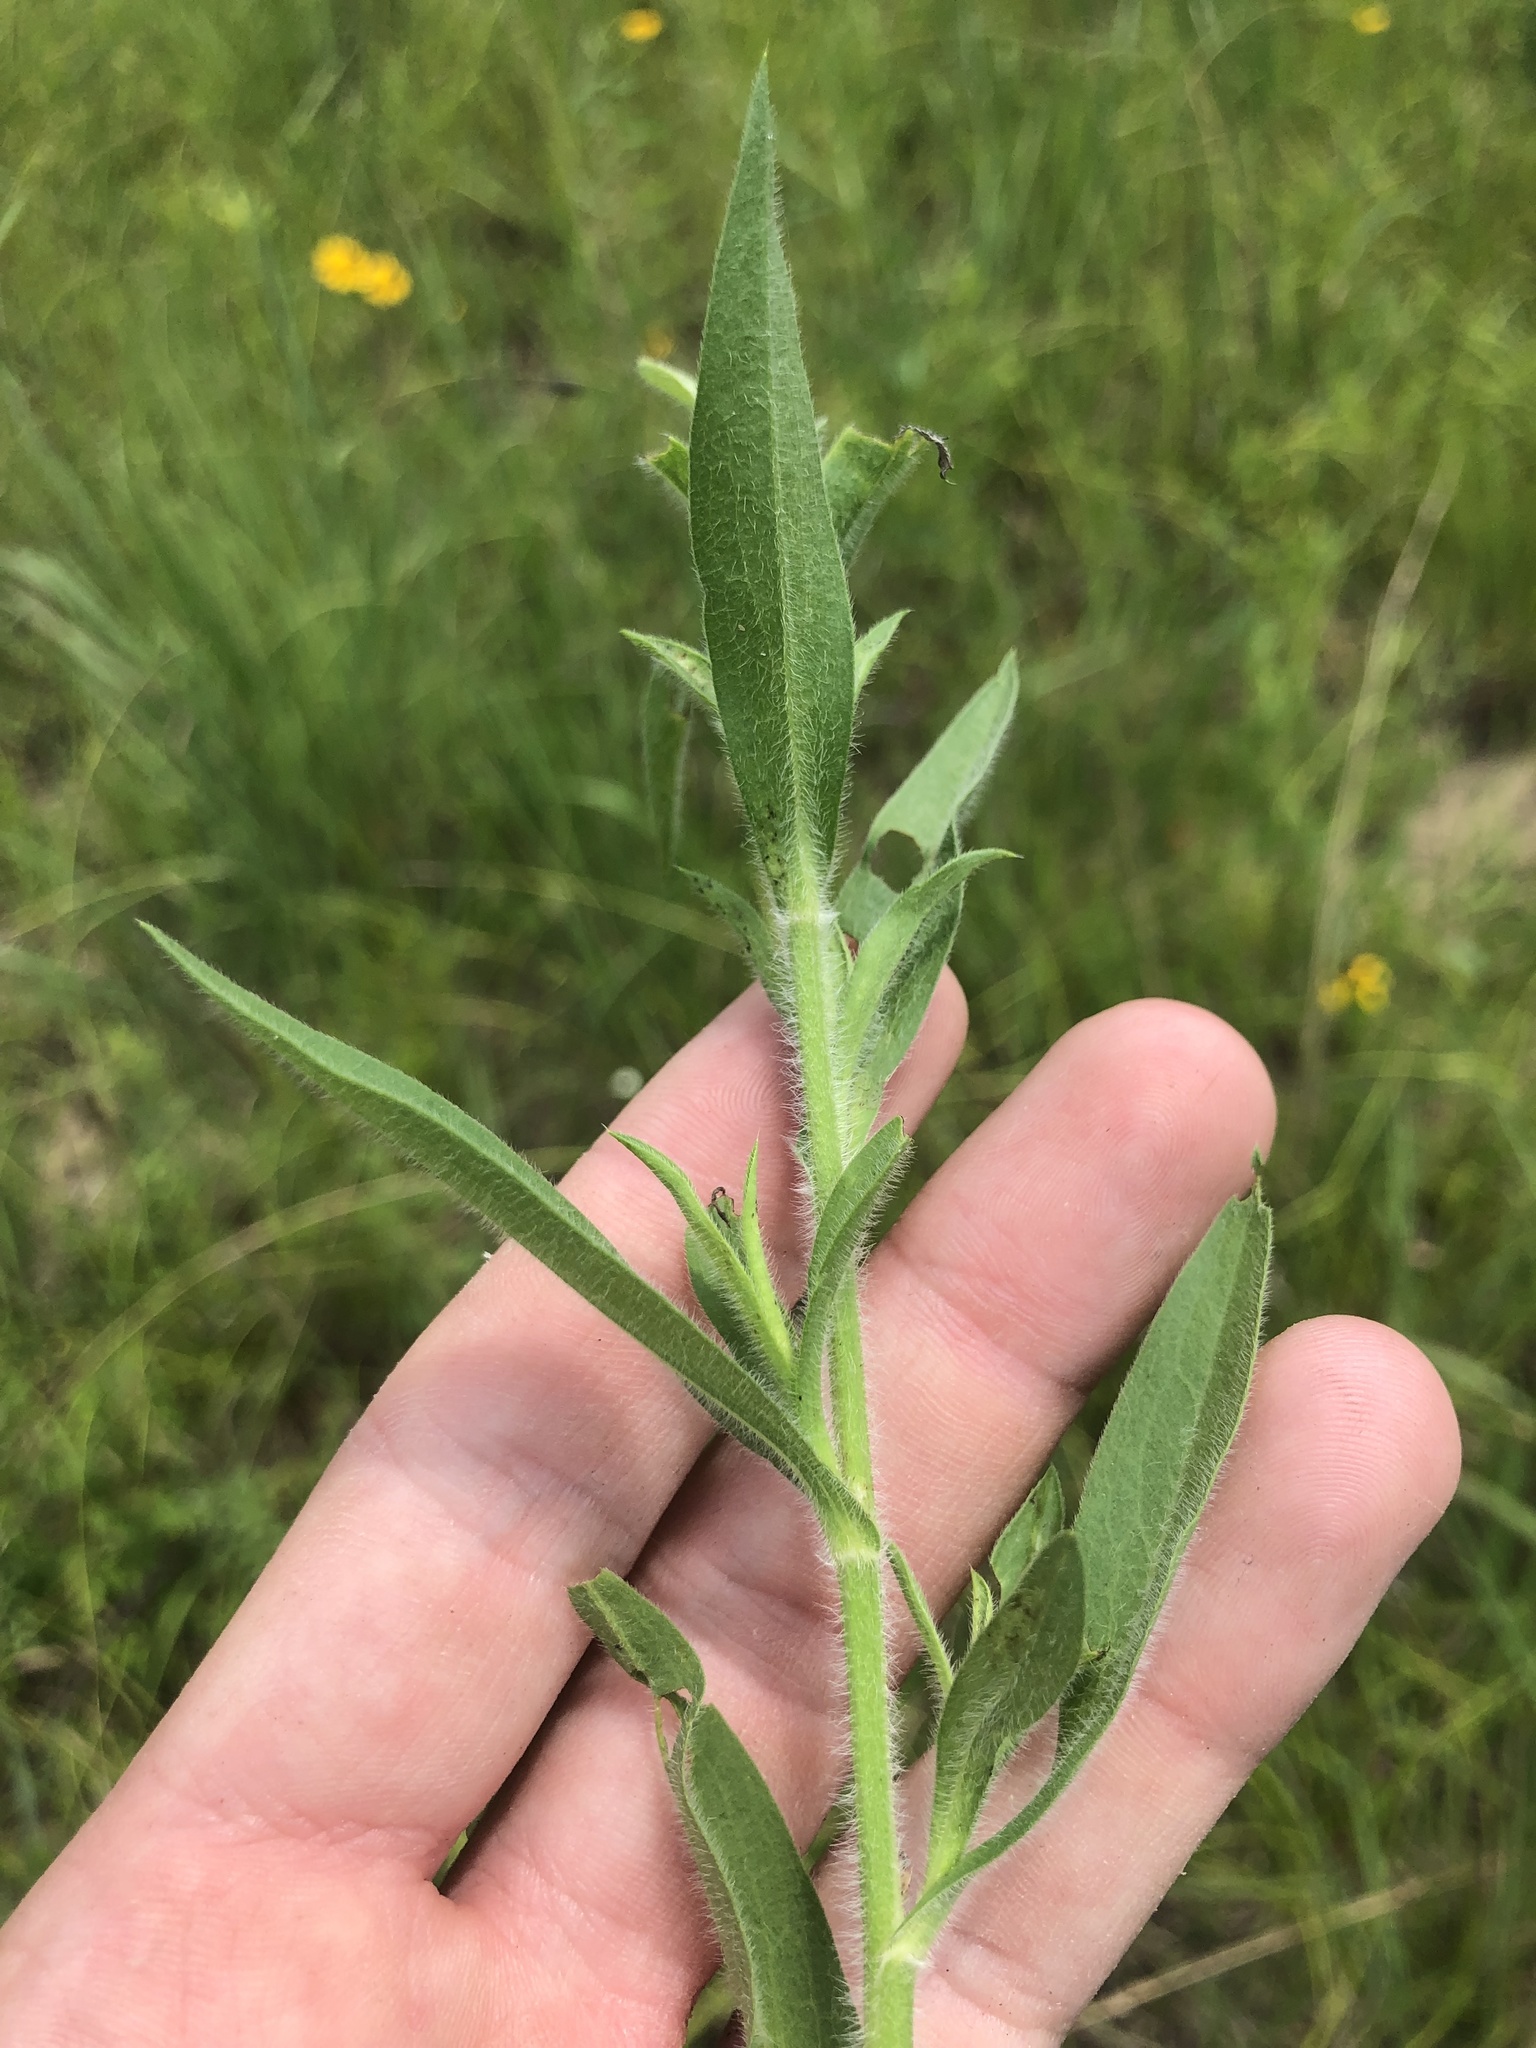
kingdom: Plantae
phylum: Tracheophyta
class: Magnoliopsida
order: Asterales
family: Asteraceae
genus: Symphyotrichum
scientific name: Symphyotrichum pilosum
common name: Awl aster
